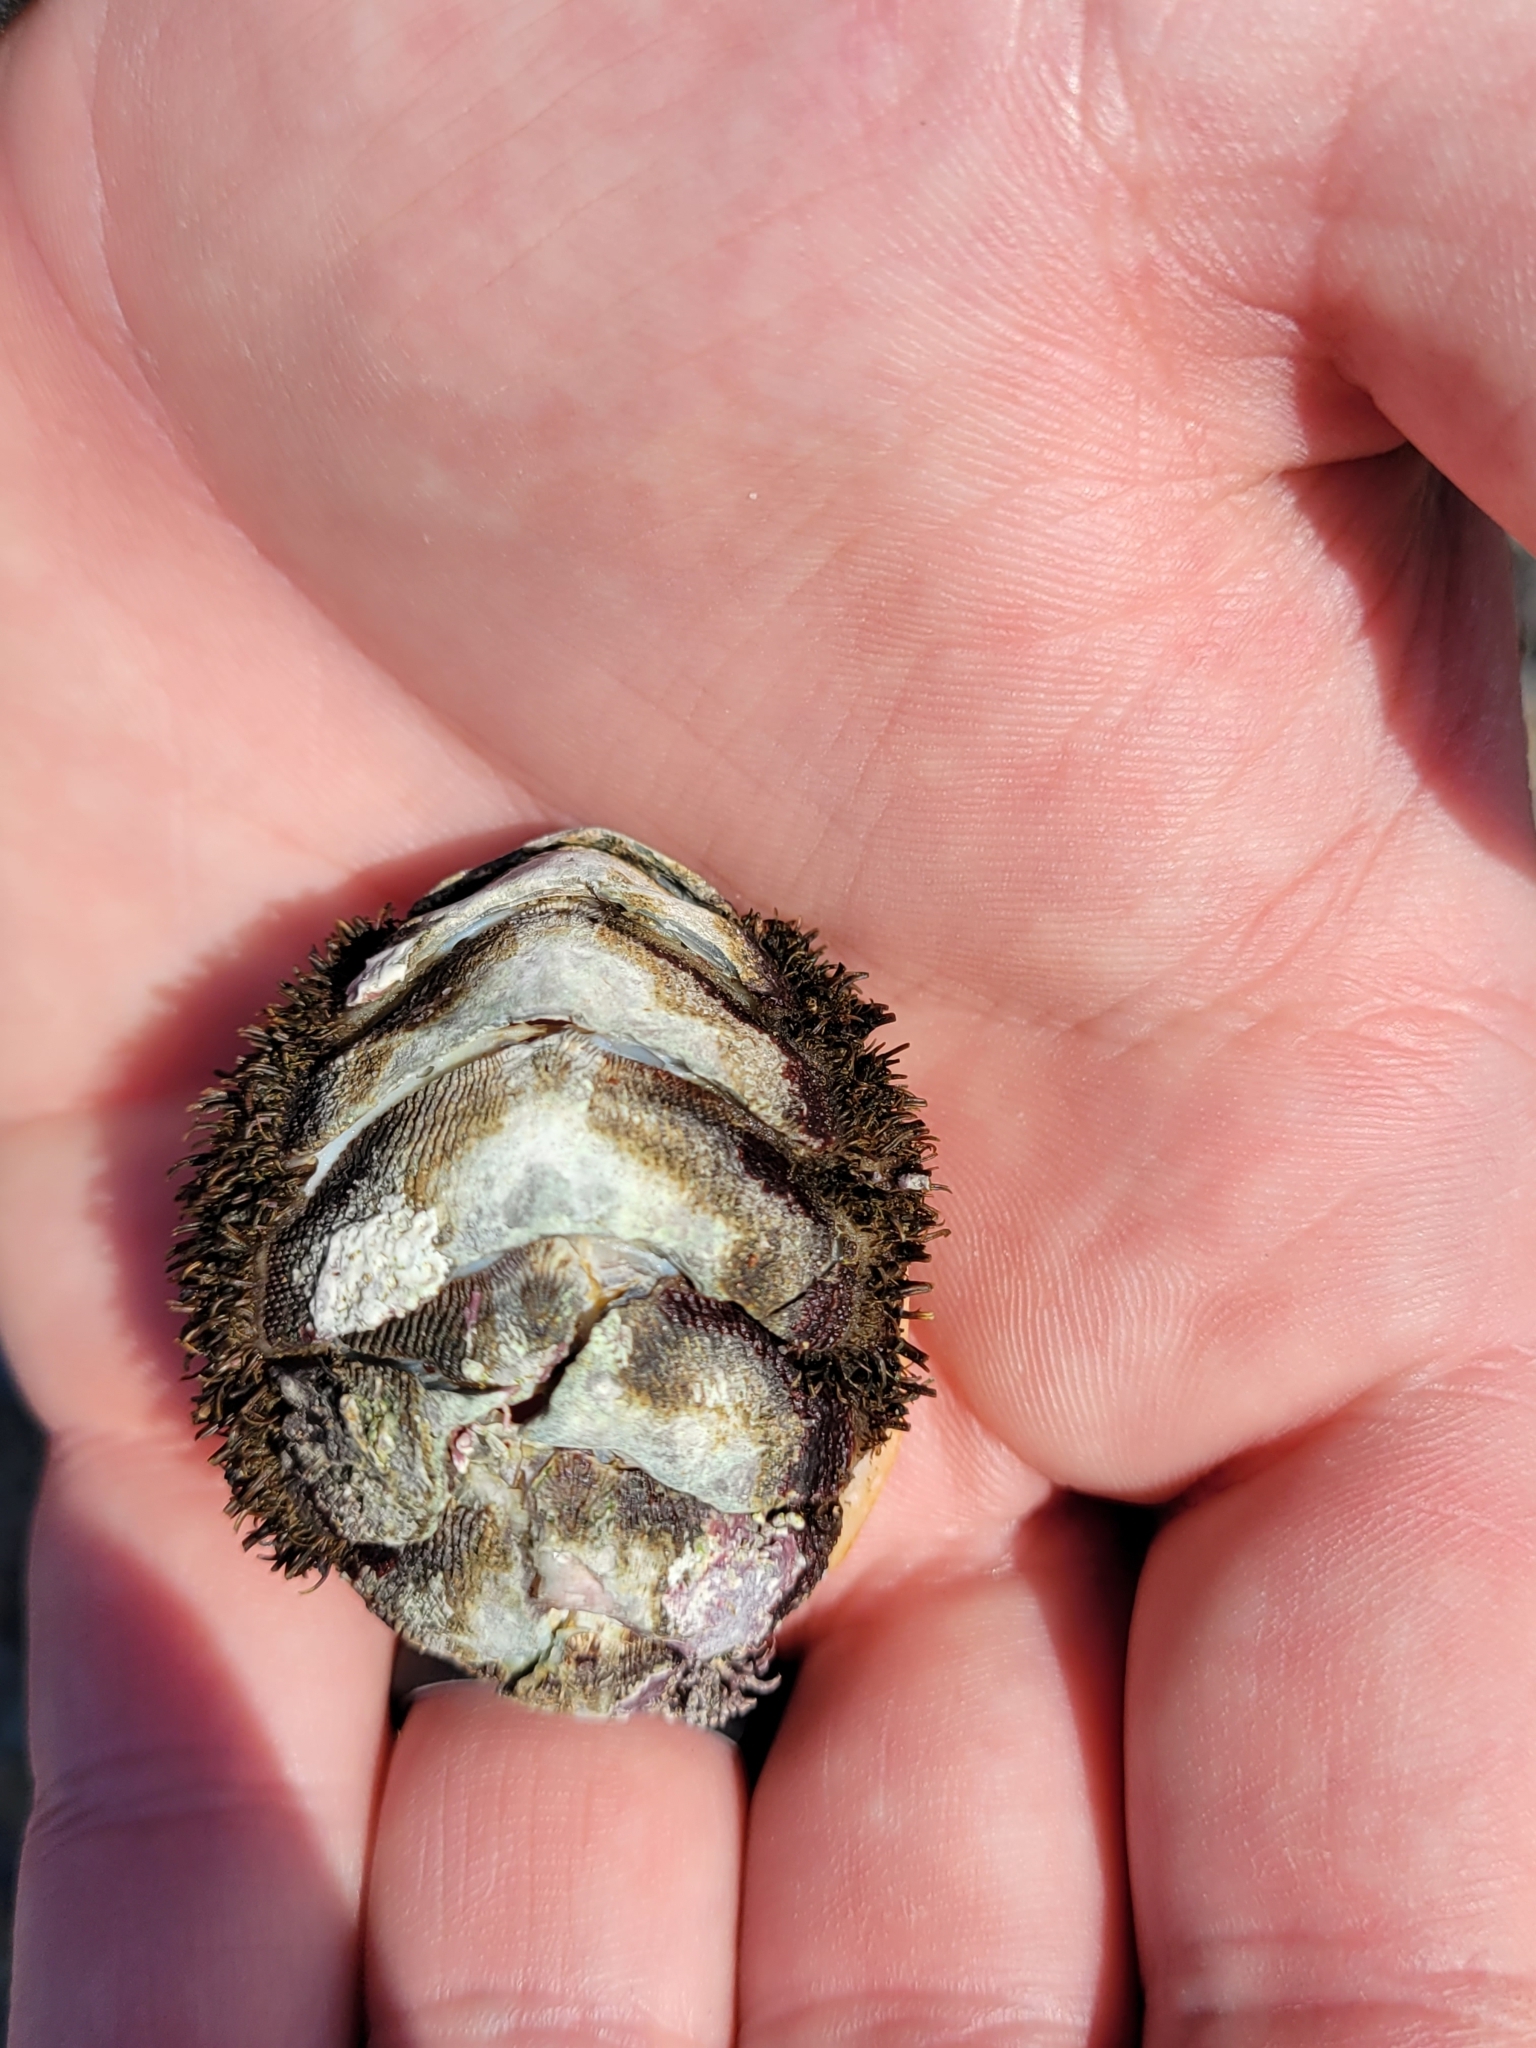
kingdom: Animalia
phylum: Mollusca
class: Polyplacophora
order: Chitonida
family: Mopaliidae
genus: Mopalia
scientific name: Mopalia muscosa
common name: Mossy chiton
